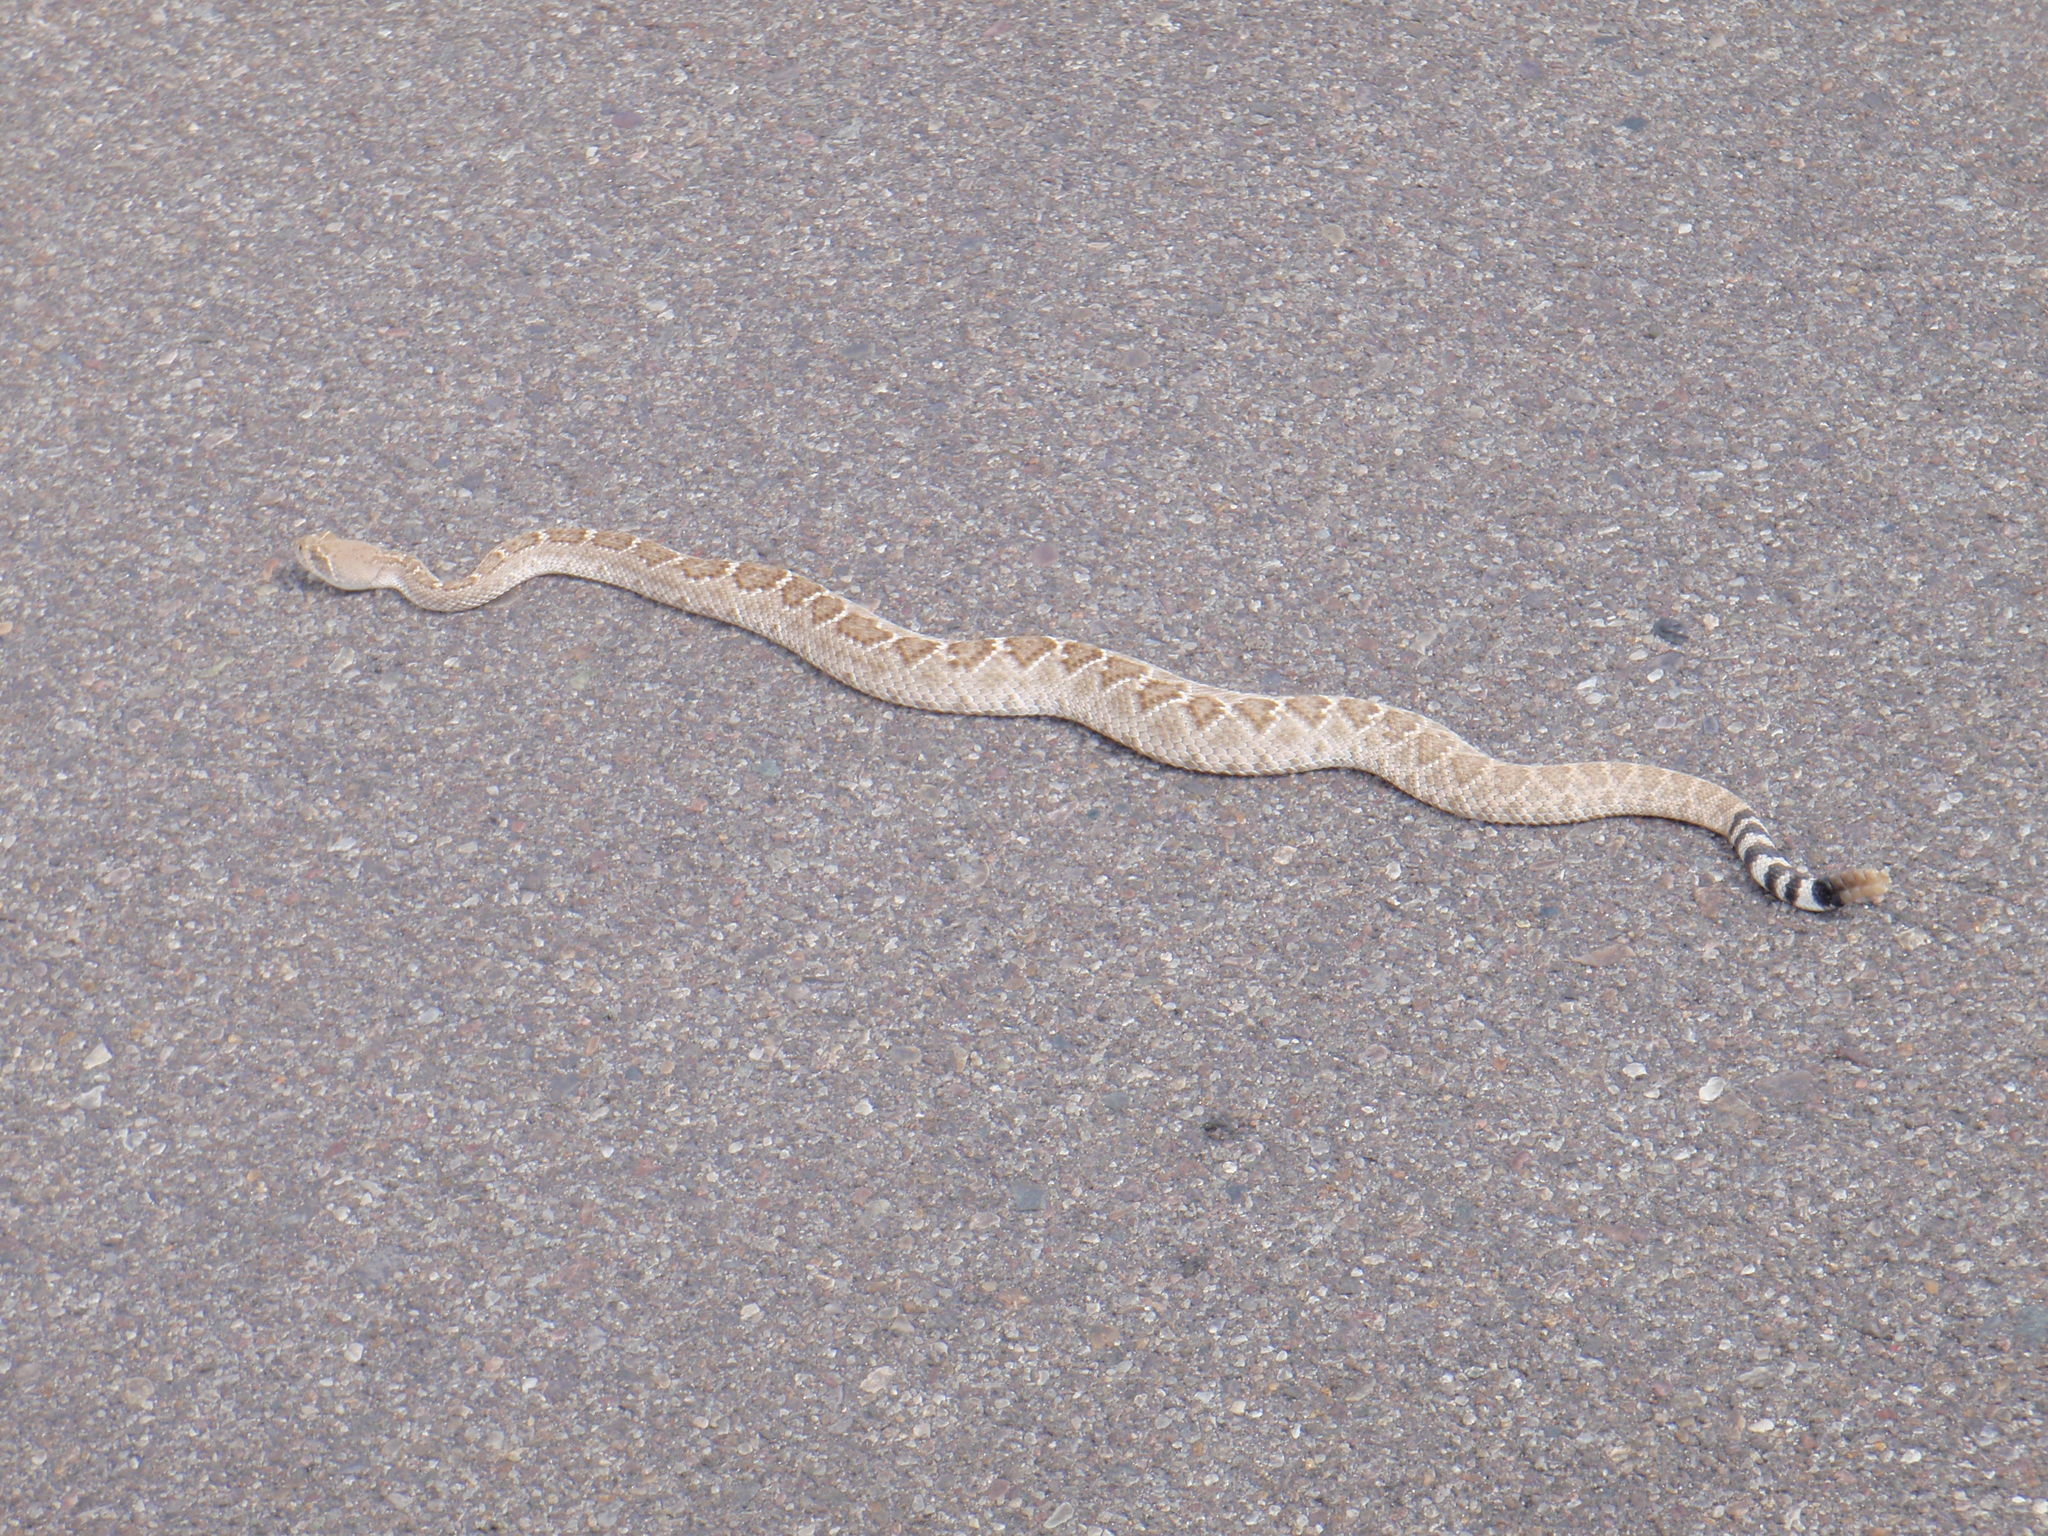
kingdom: Animalia
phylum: Chordata
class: Squamata
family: Viperidae
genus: Crotalus
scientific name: Crotalus atrox
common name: Western diamond-backed rattlesnake
